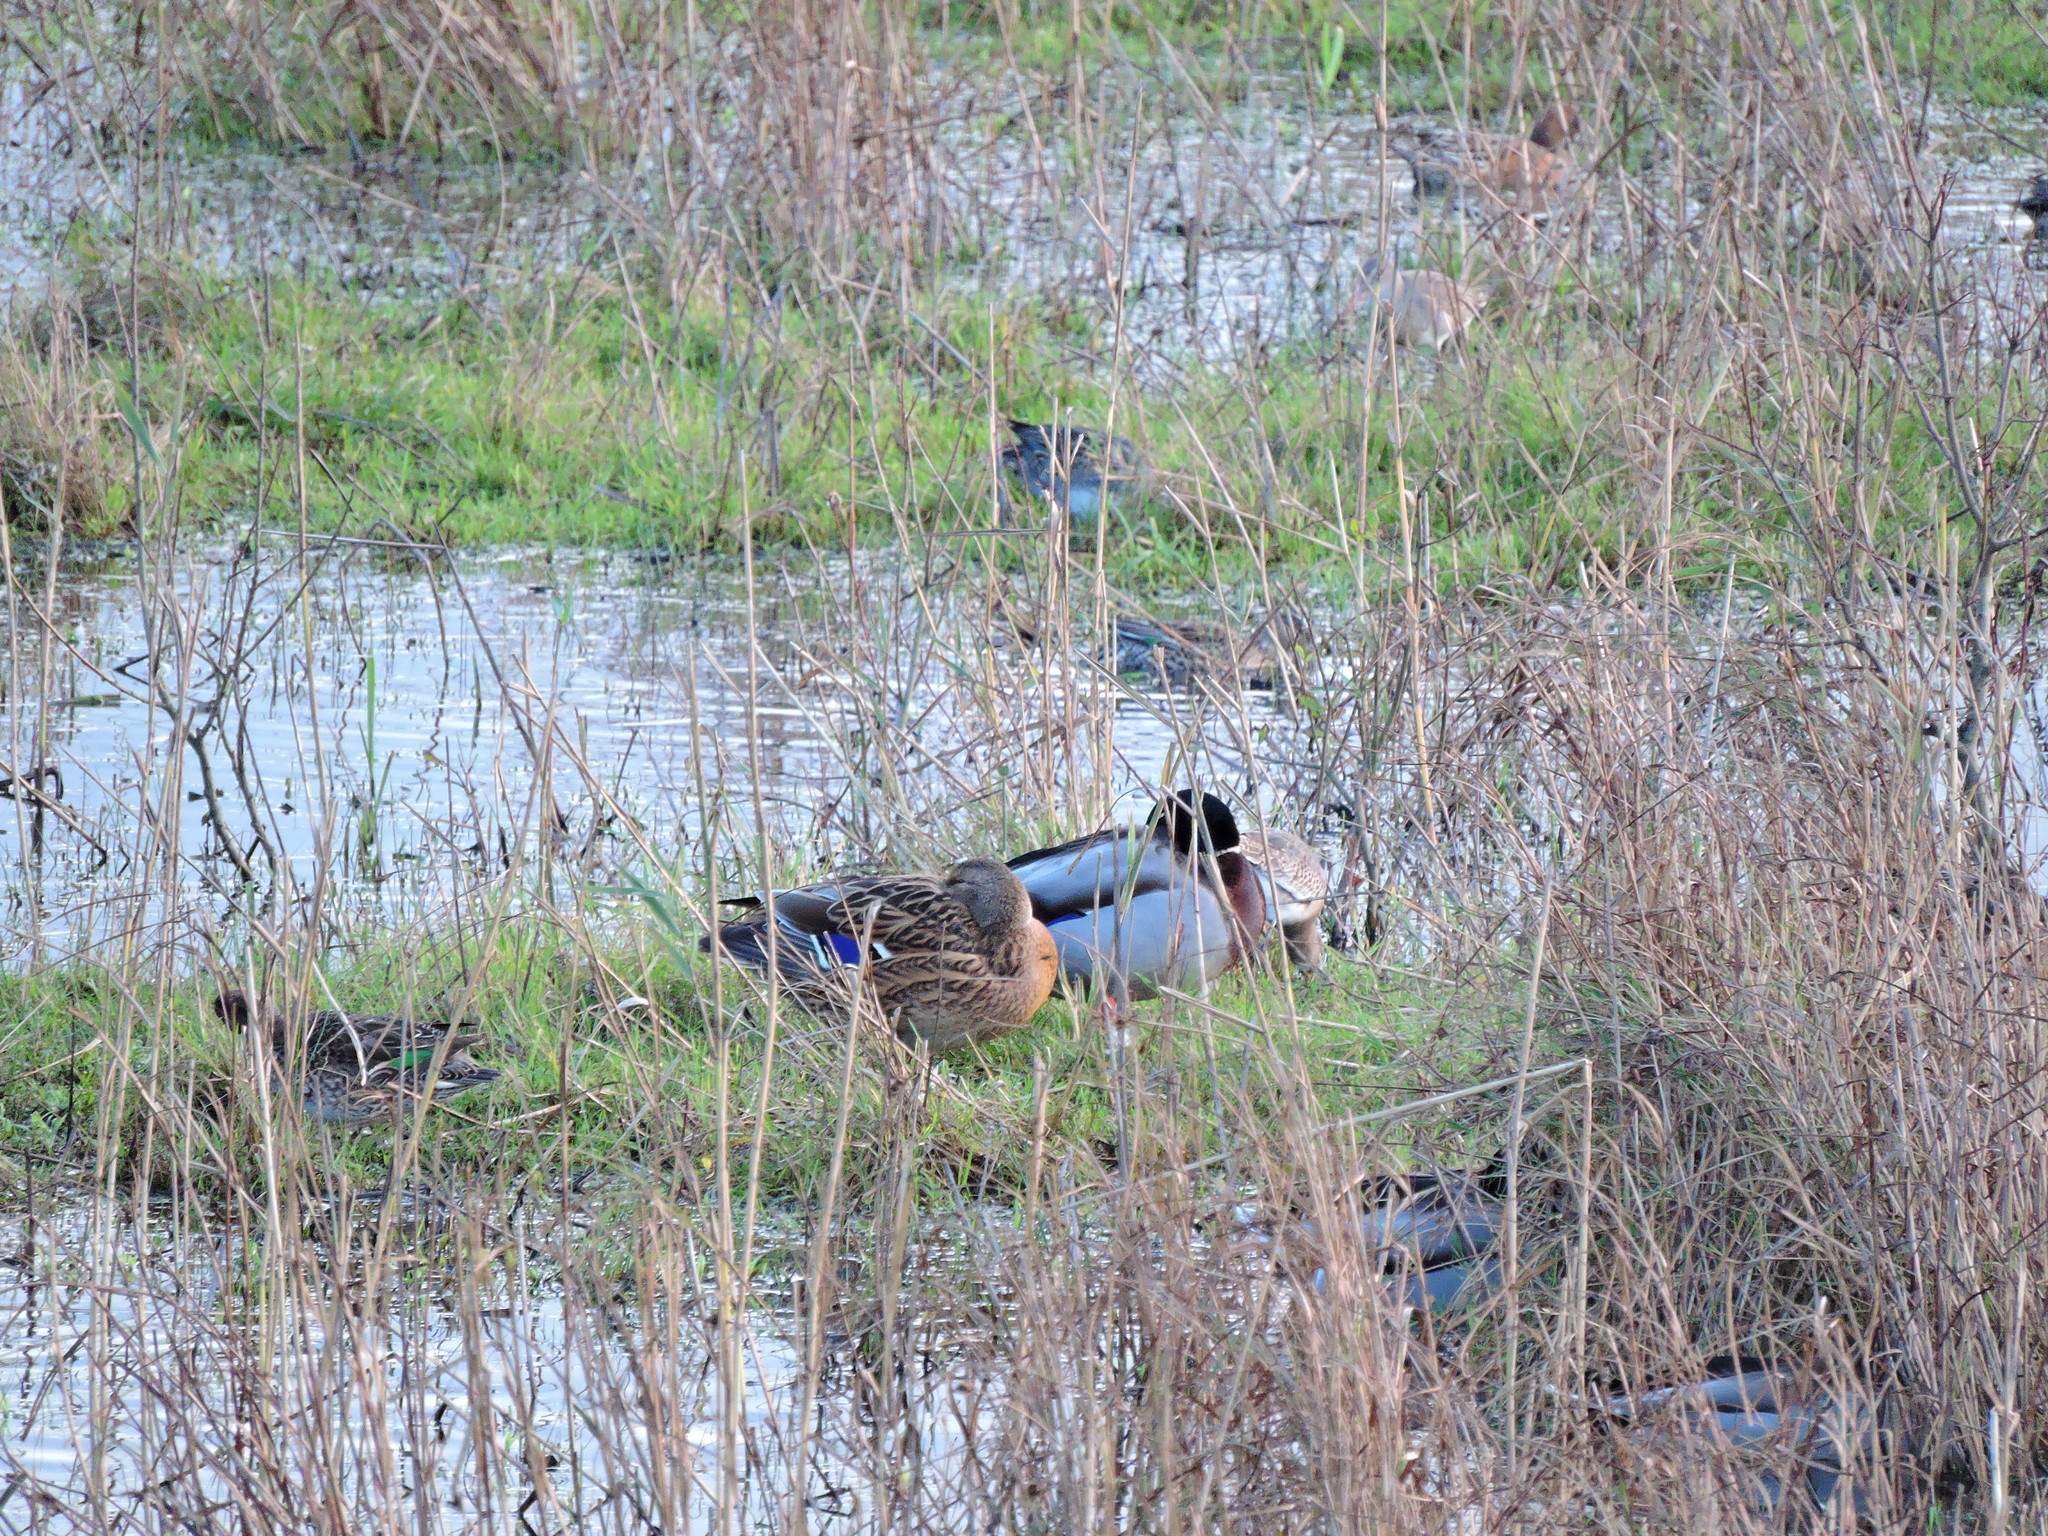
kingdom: Animalia
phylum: Chordata
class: Aves
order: Anseriformes
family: Anatidae
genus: Anas
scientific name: Anas platyrhynchos
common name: Mallard
